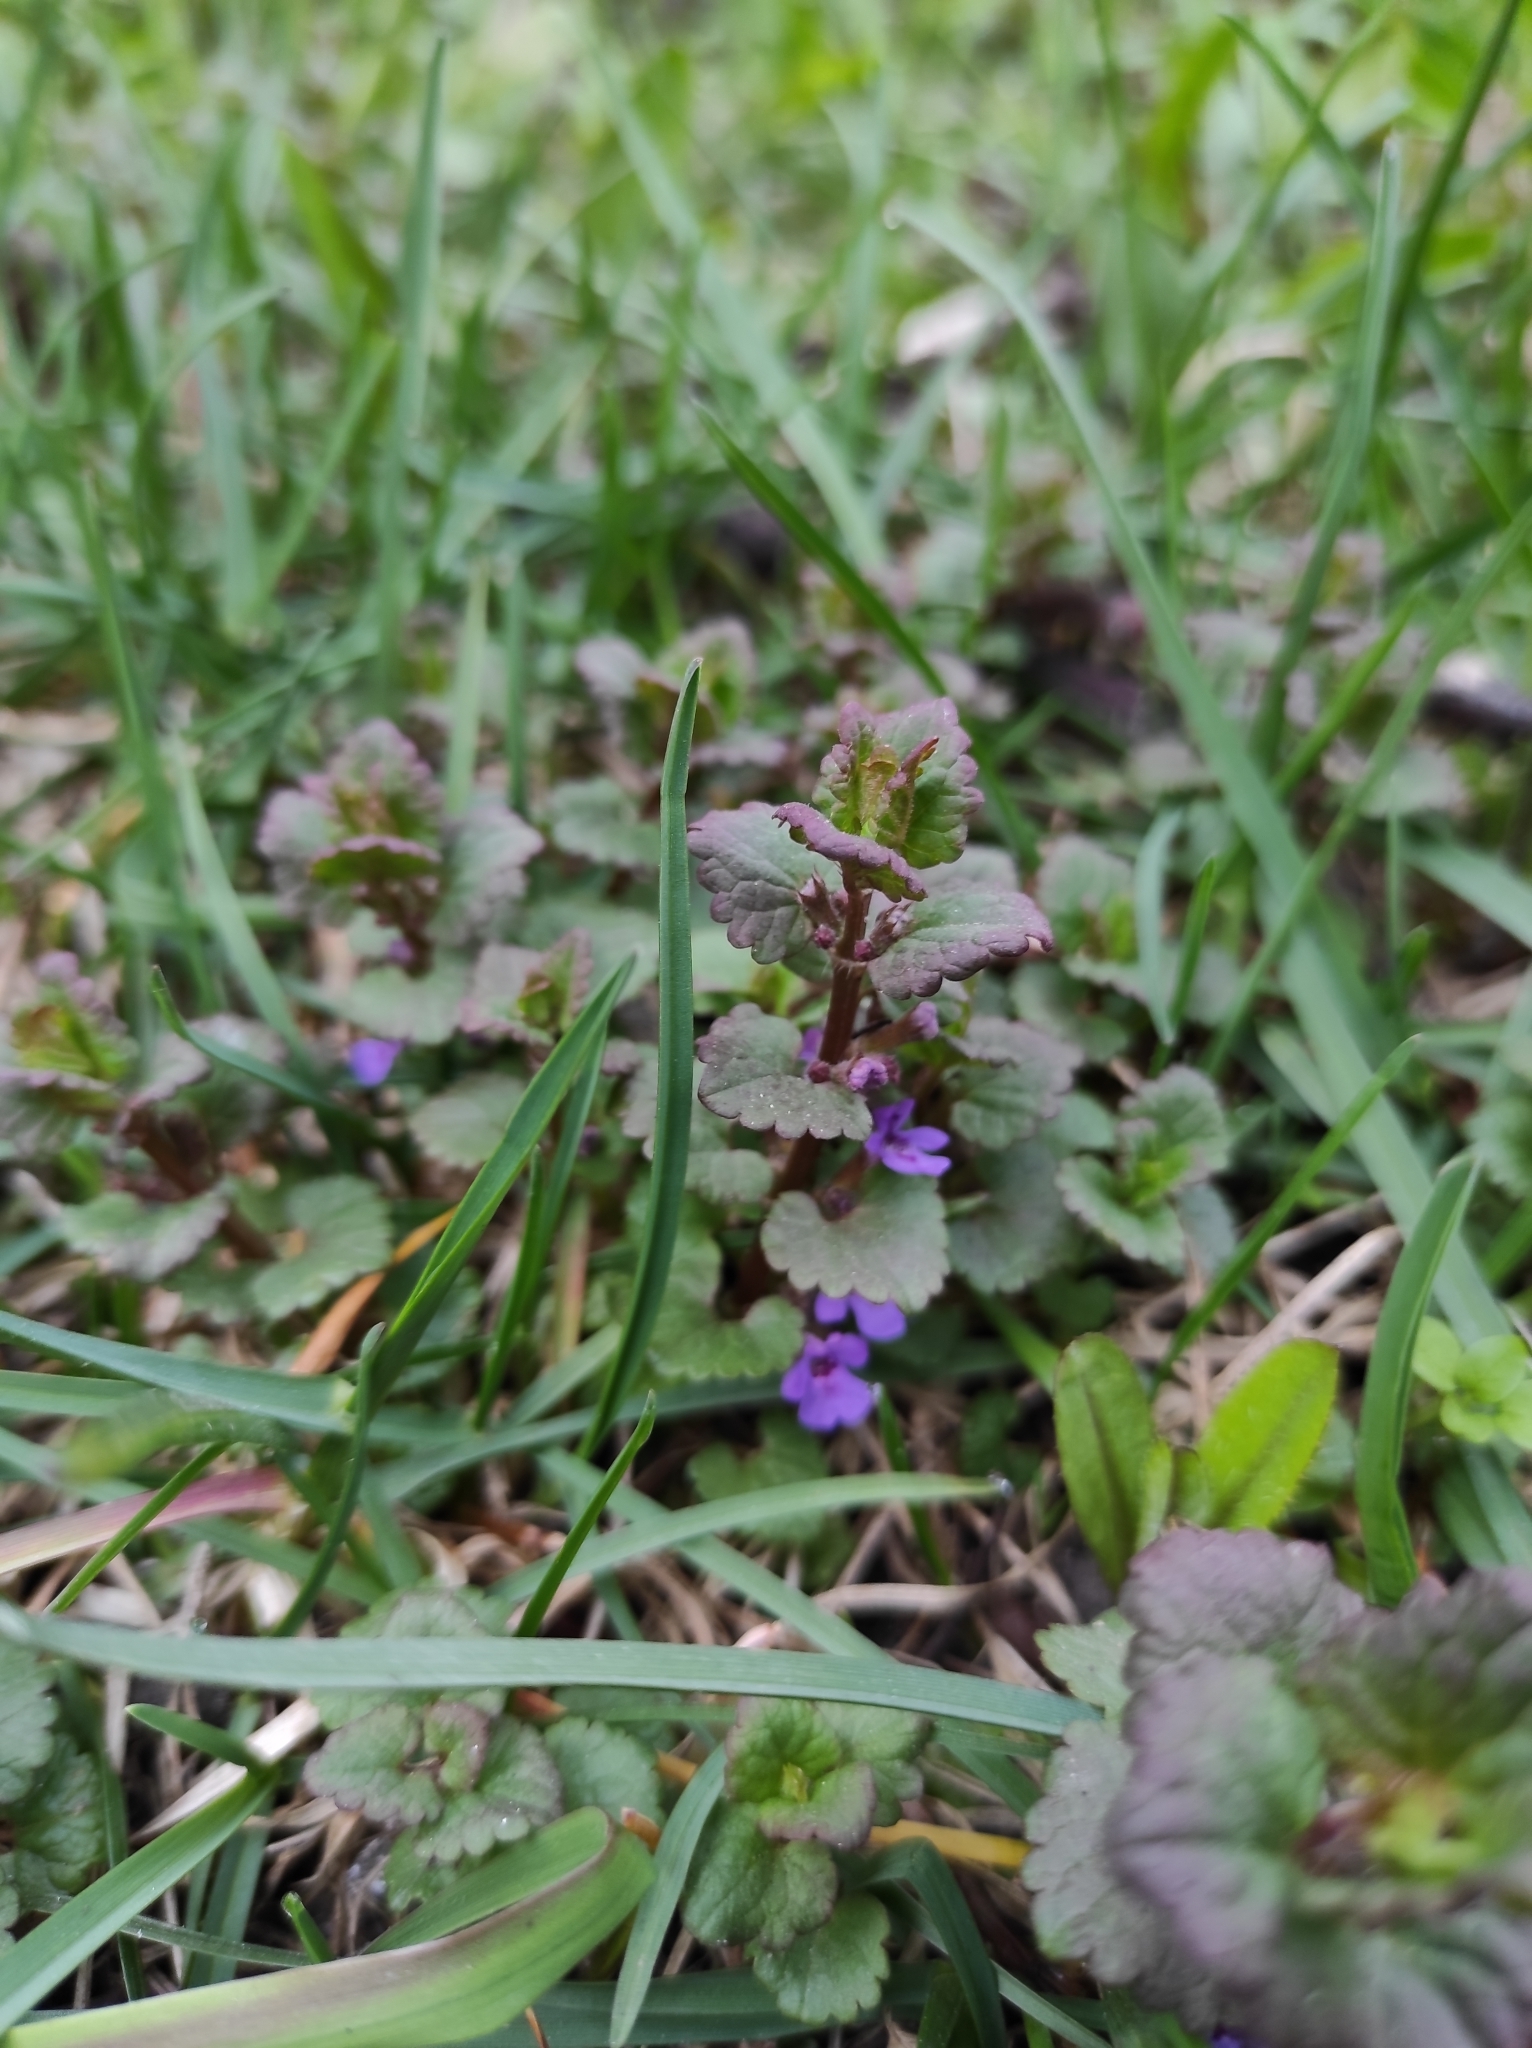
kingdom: Plantae
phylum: Tracheophyta
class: Magnoliopsida
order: Lamiales
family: Lamiaceae
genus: Glechoma
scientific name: Glechoma hederacea
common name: Ground ivy
